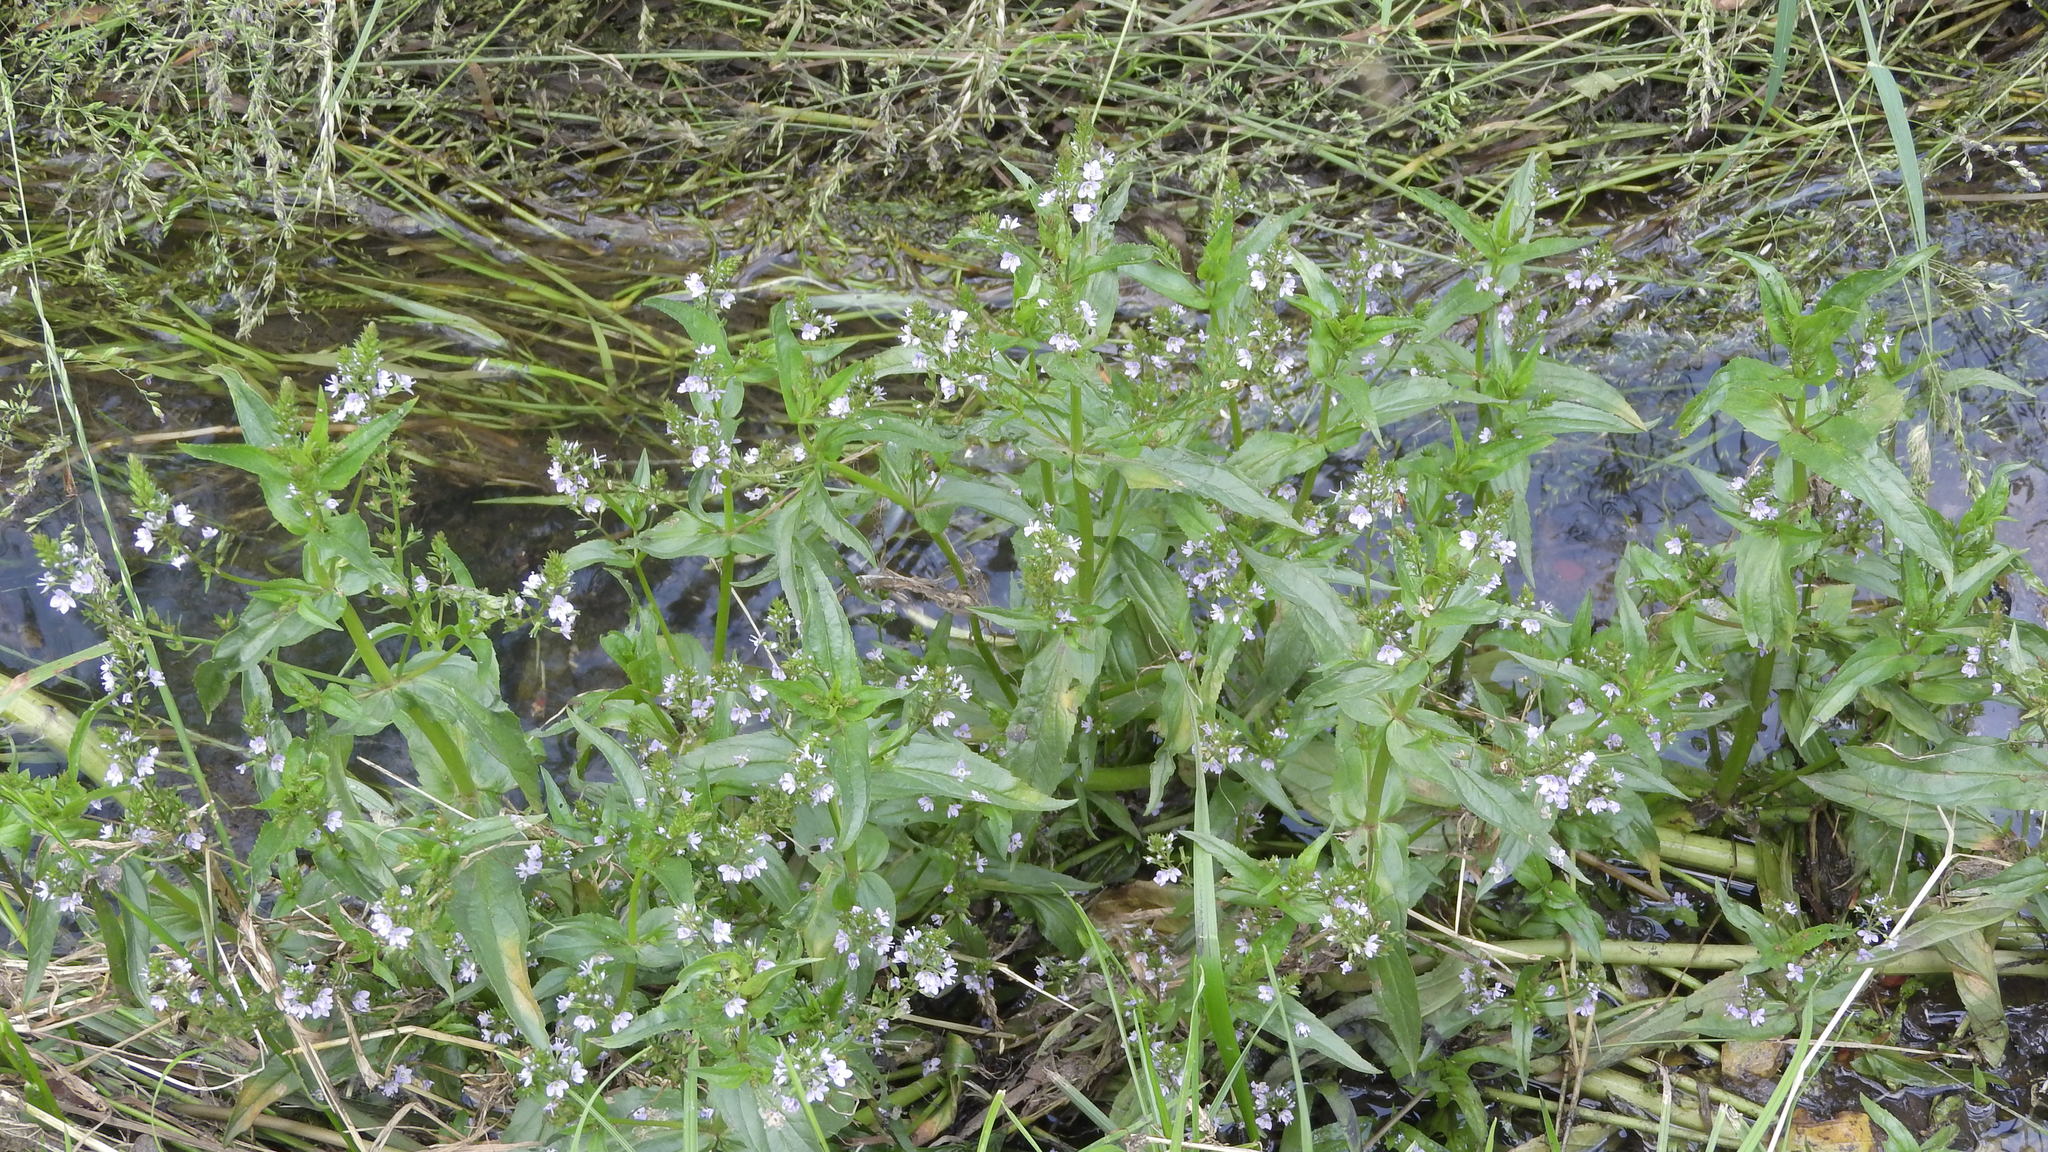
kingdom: Plantae
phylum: Tracheophyta
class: Magnoliopsida
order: Lamiales
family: Plantaginaceae
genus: Veronica
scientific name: Veronica anagallis-aquatica
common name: Water speedwell
